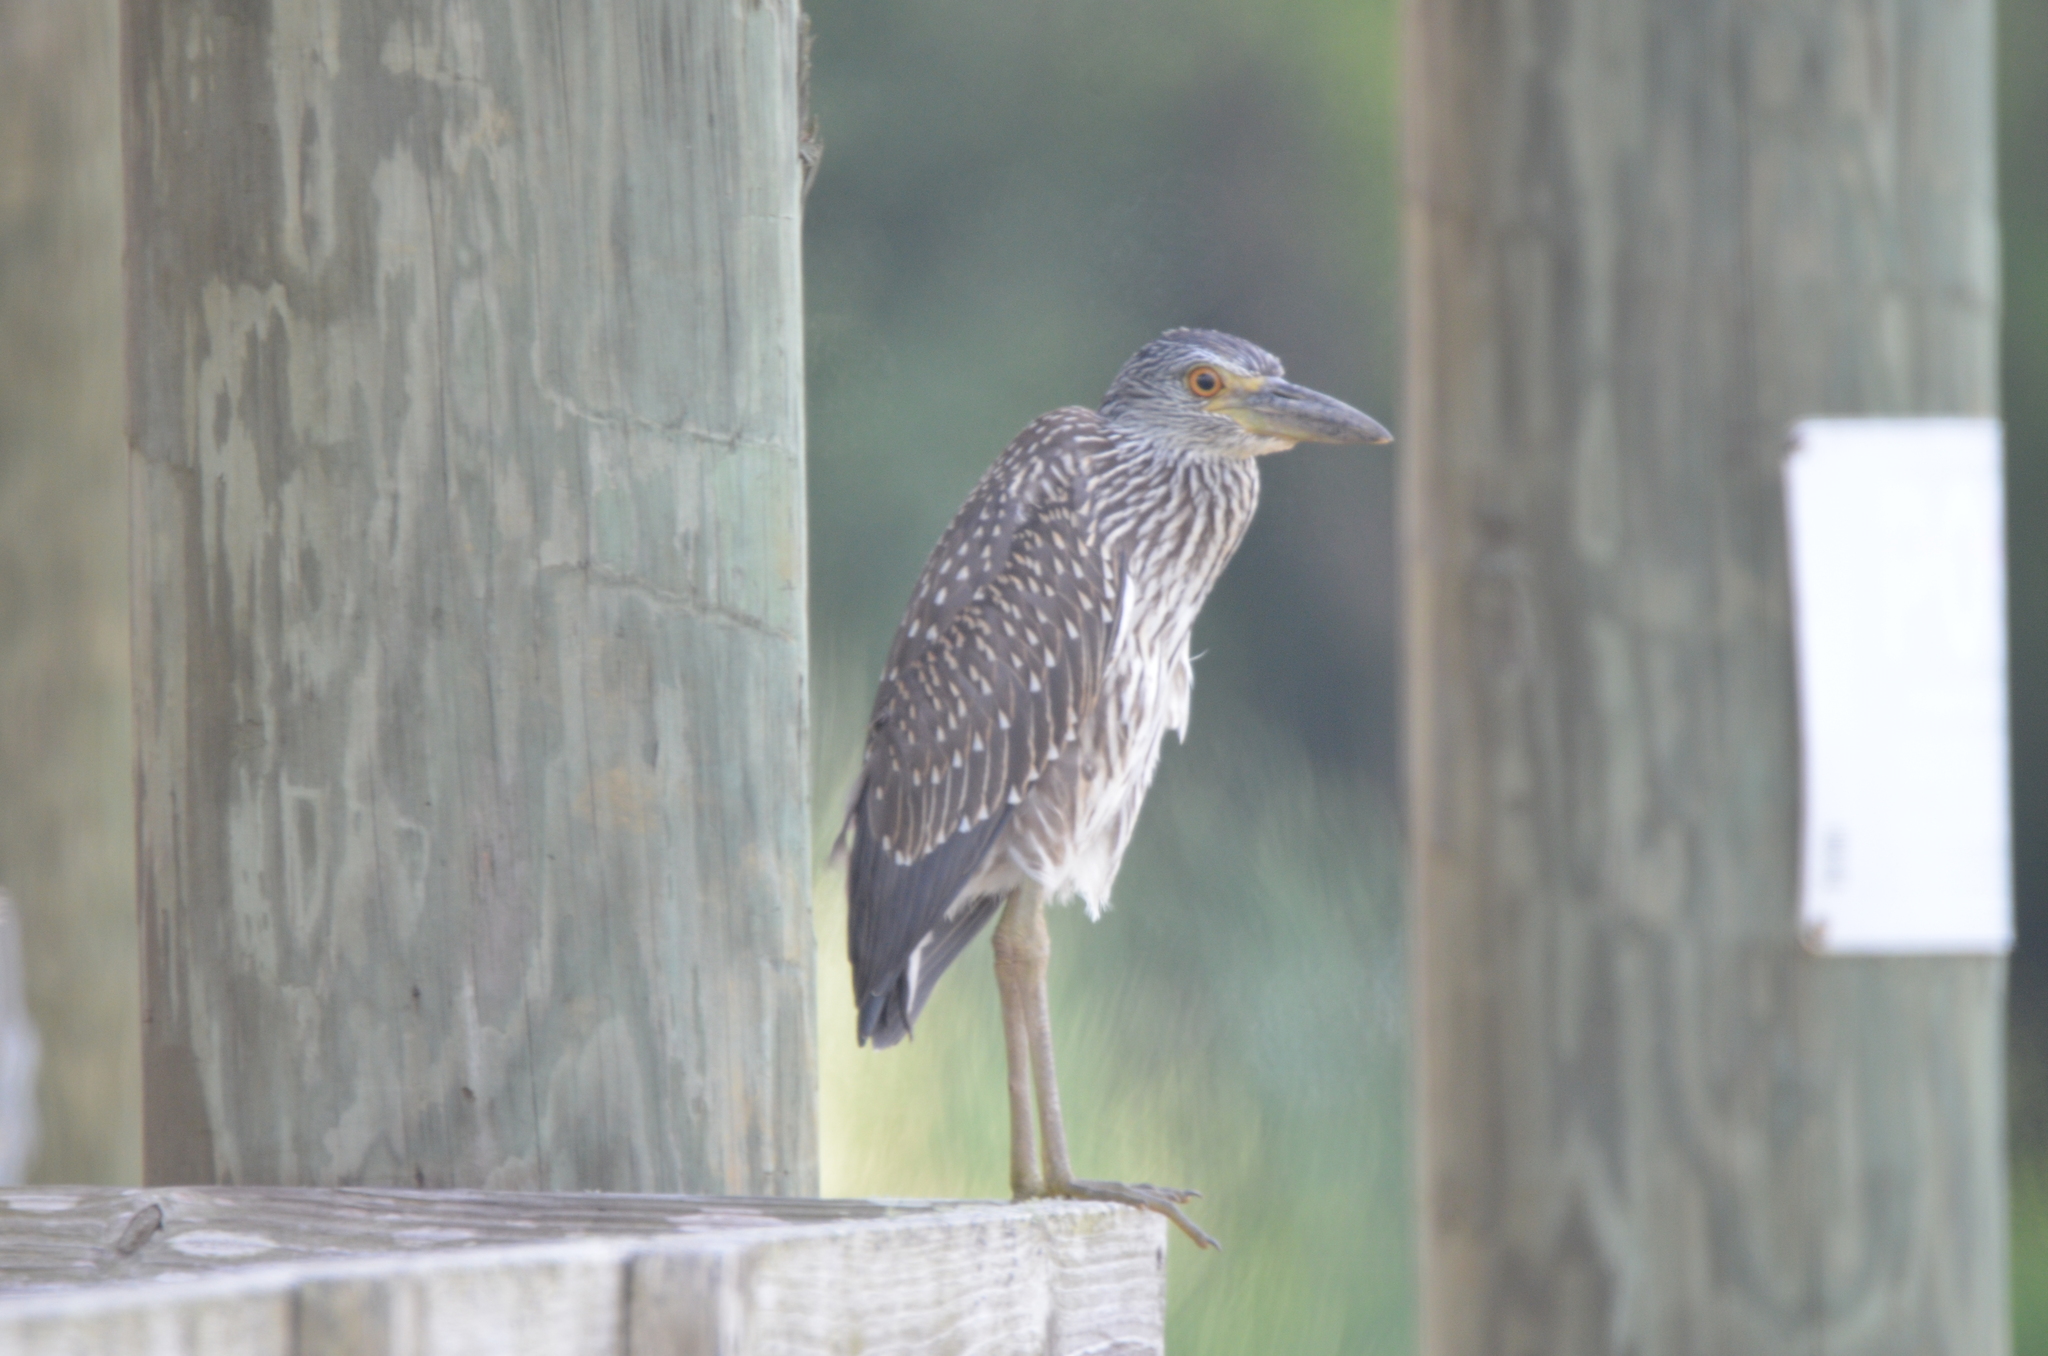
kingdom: Animalia
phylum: Chordata
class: Aves
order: Pelecaniformes
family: Ardeidae
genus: Nyctanassa
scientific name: Nyctanassa violacea
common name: Yellow-crowned night heron
